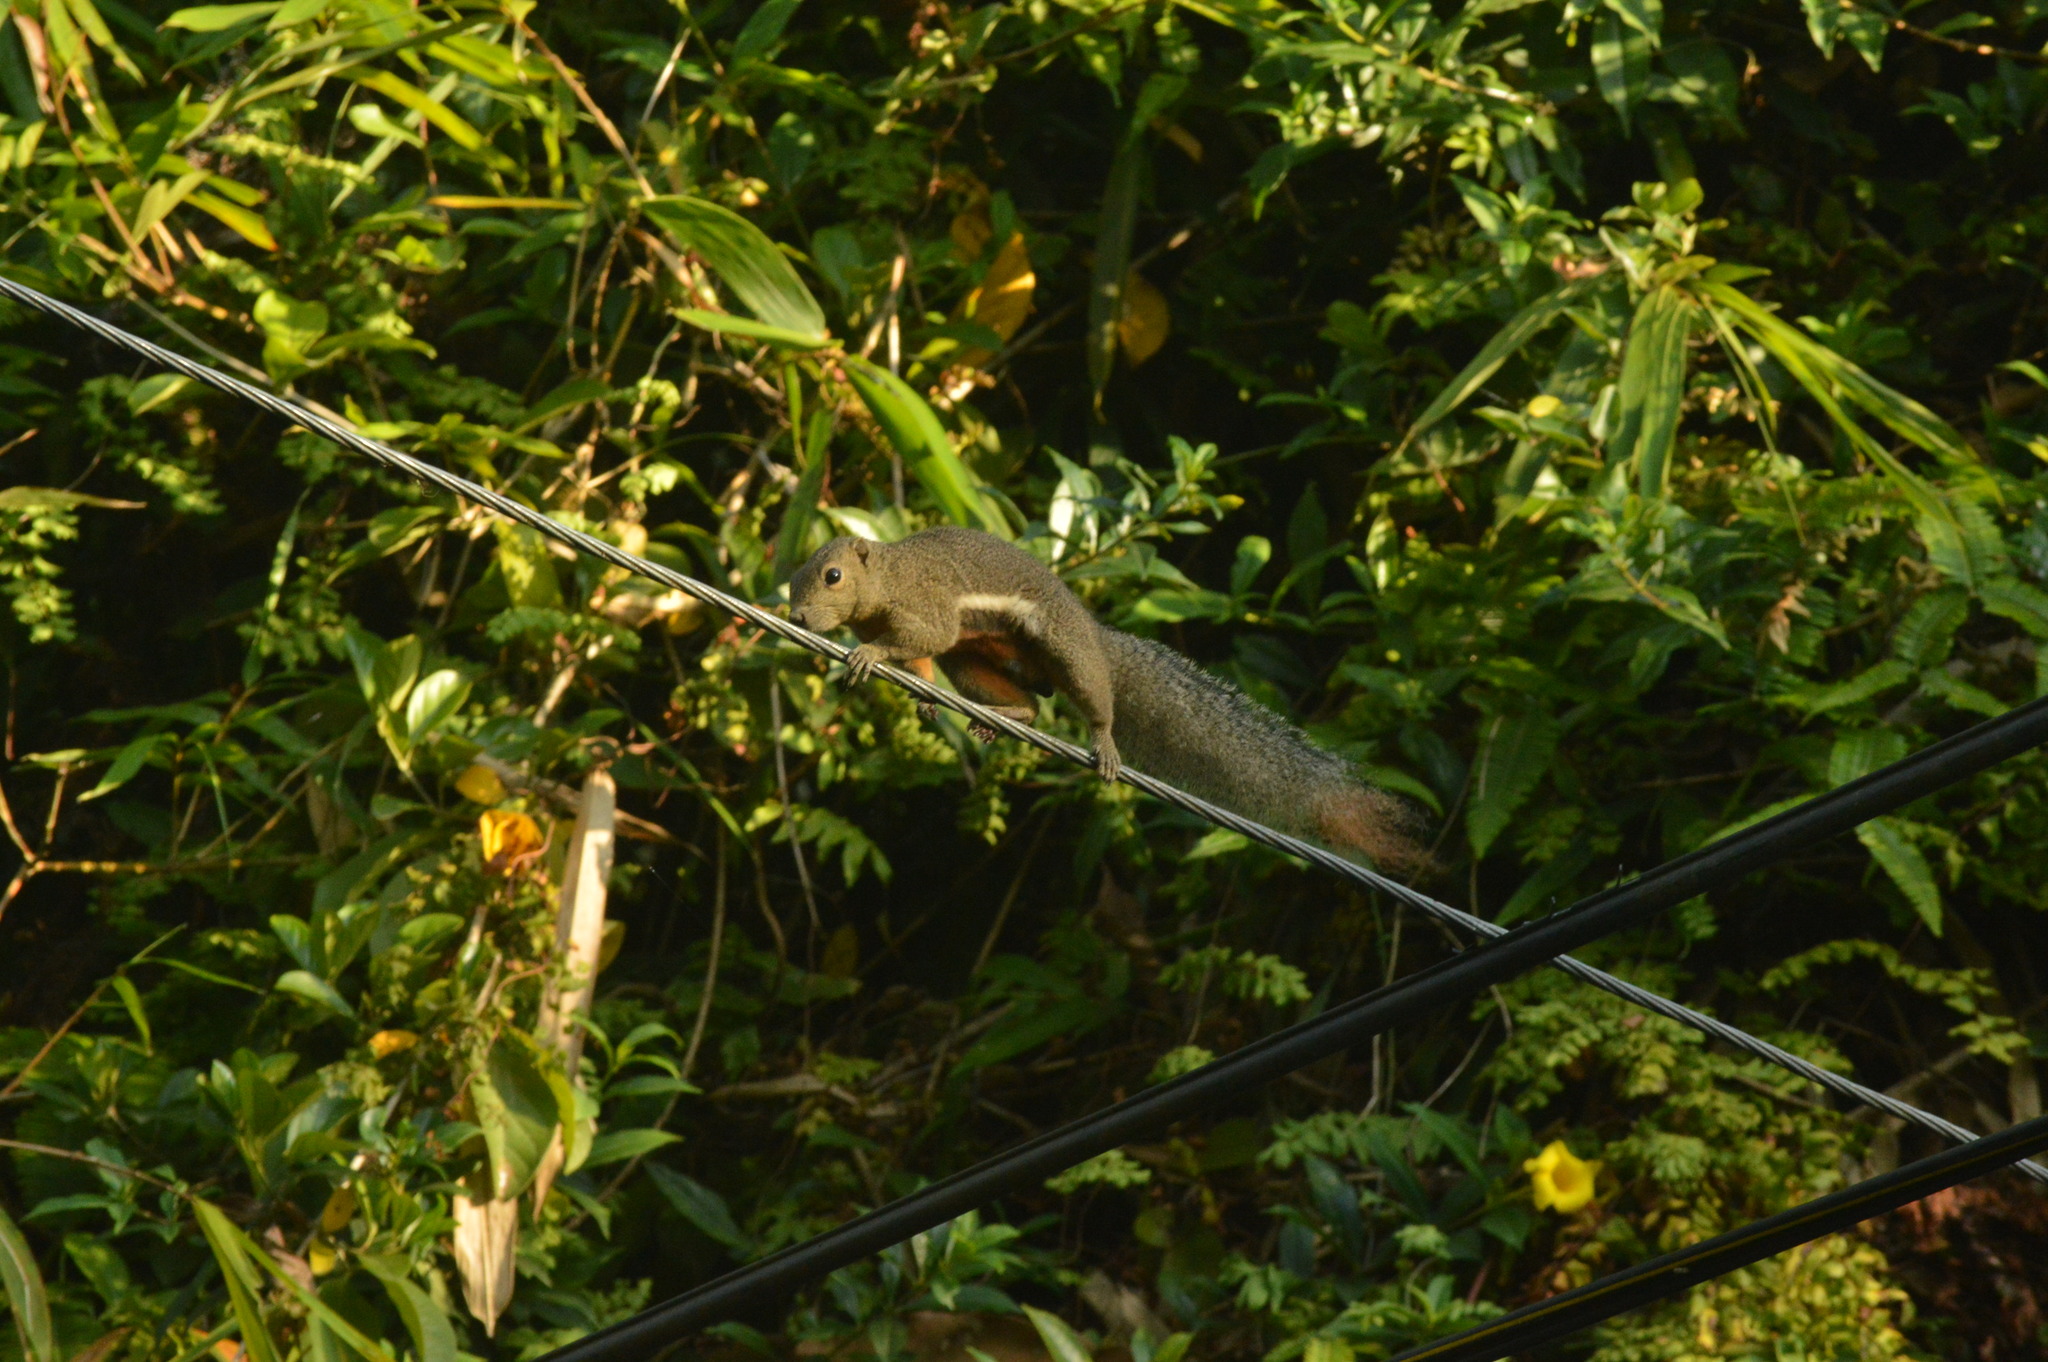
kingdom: Animalia
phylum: Chordata
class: Mammalia
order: Rodentia
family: Sciuridae
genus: Callosciurus
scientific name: Callosciurus notatus
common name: Plantain squirrel
